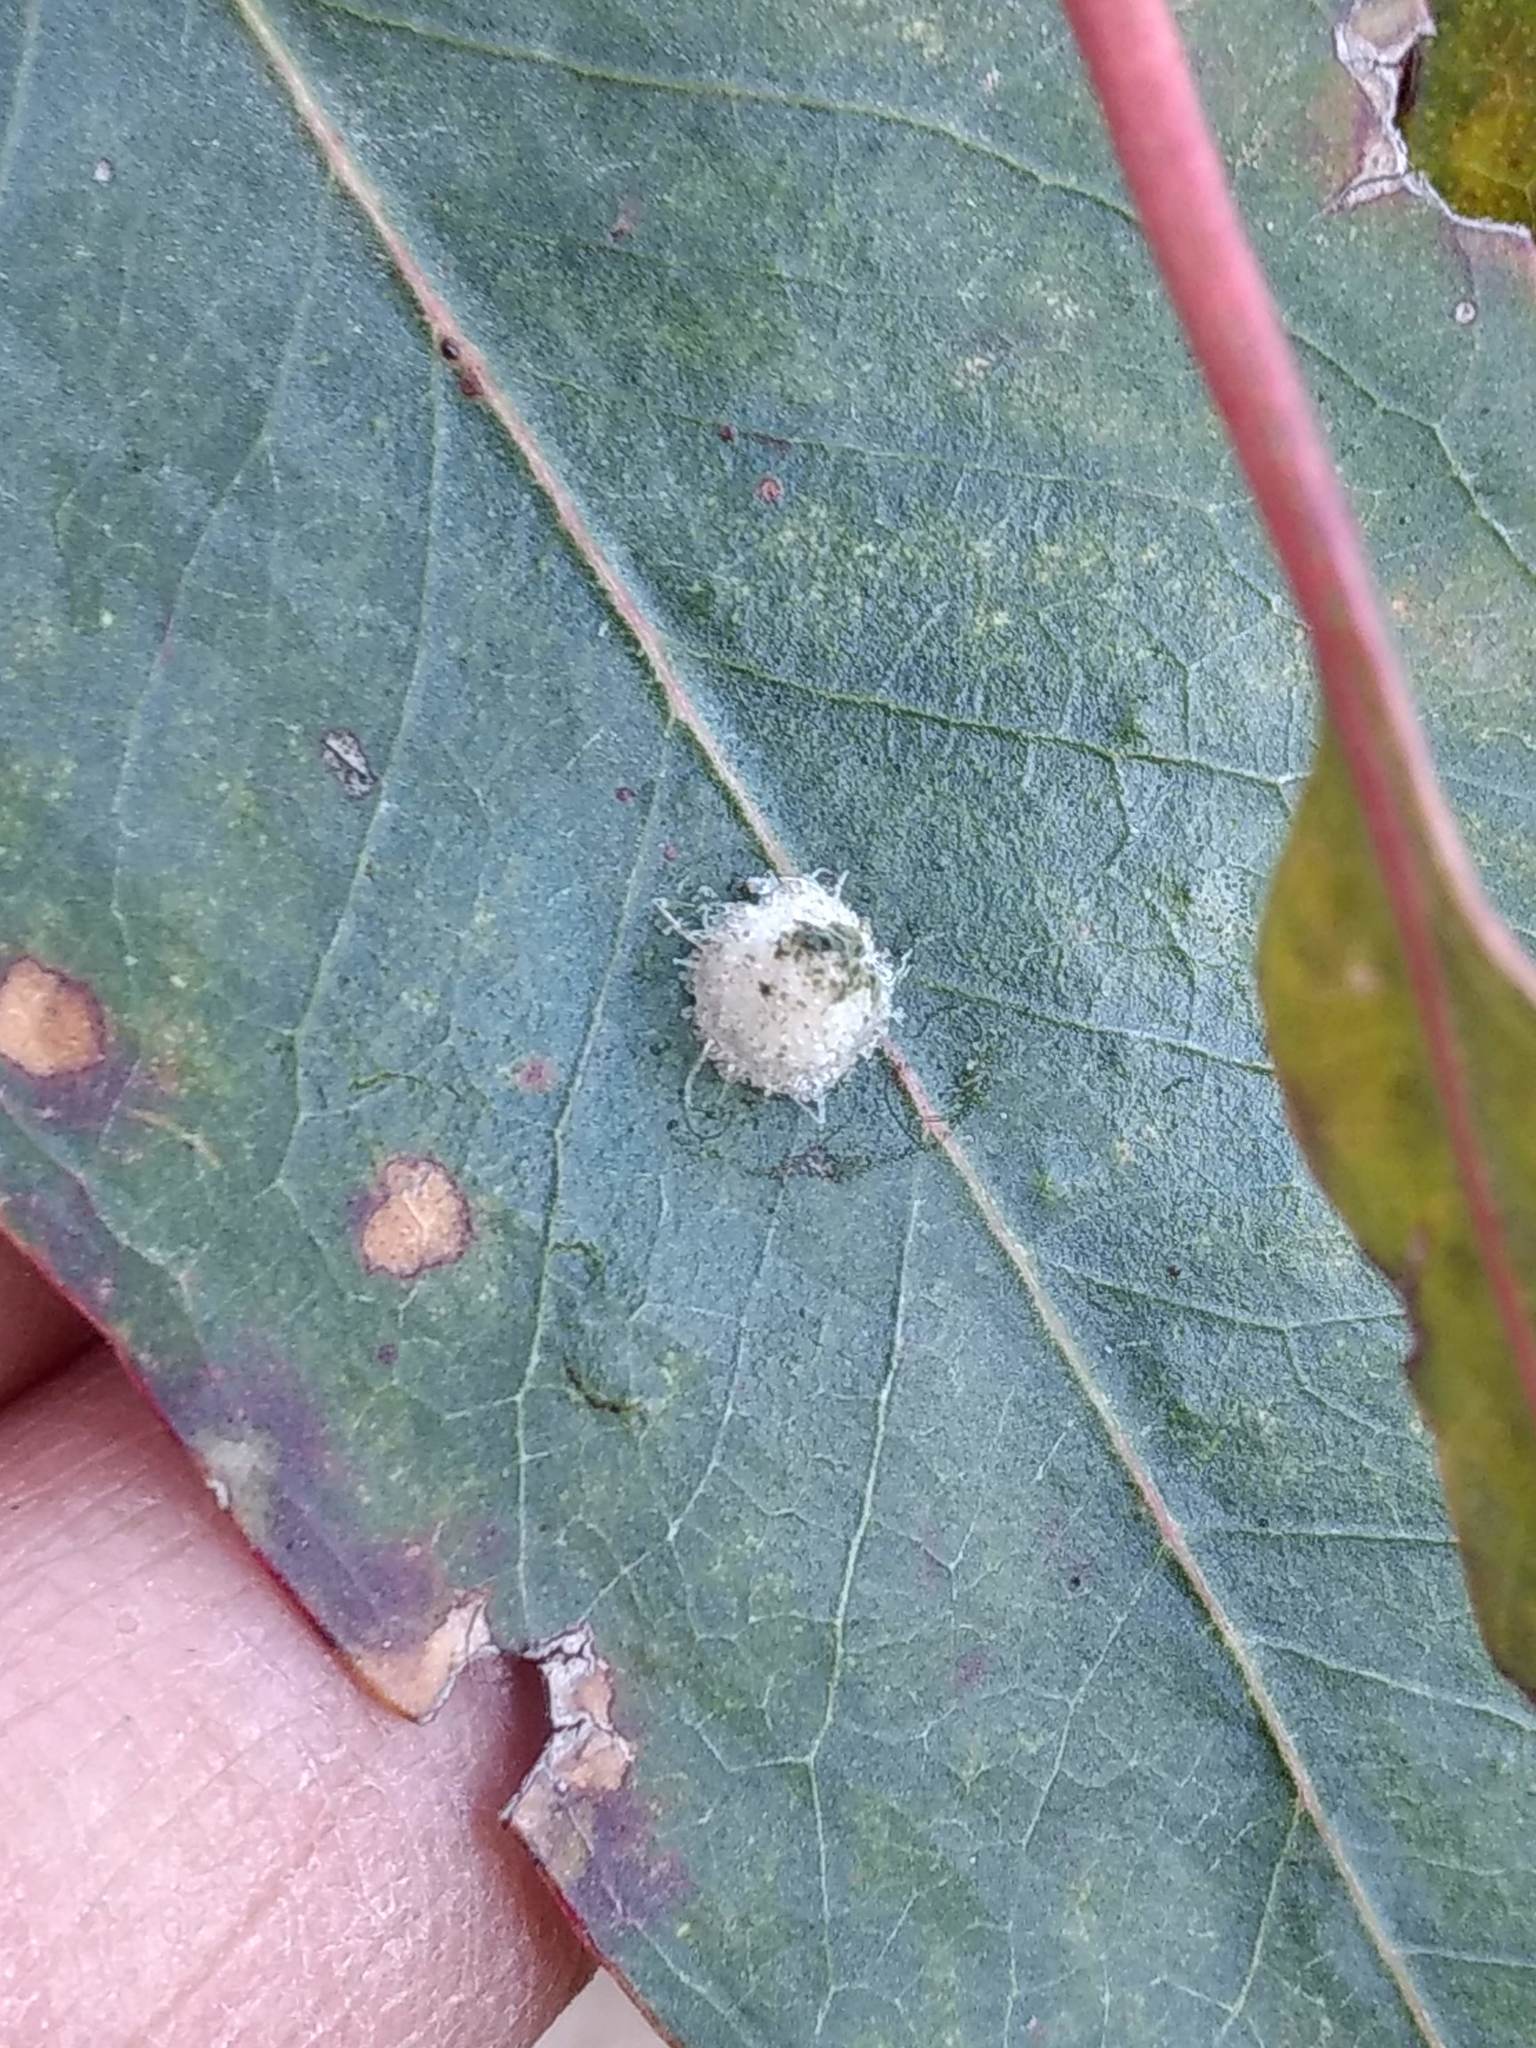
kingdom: Animalia
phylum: Arthropoda
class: Insecta
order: Hemiptera
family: Aphalaridae
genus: Glycaspis
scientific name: Glycaspis brimblecombei
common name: Red gum lerp psyllid
